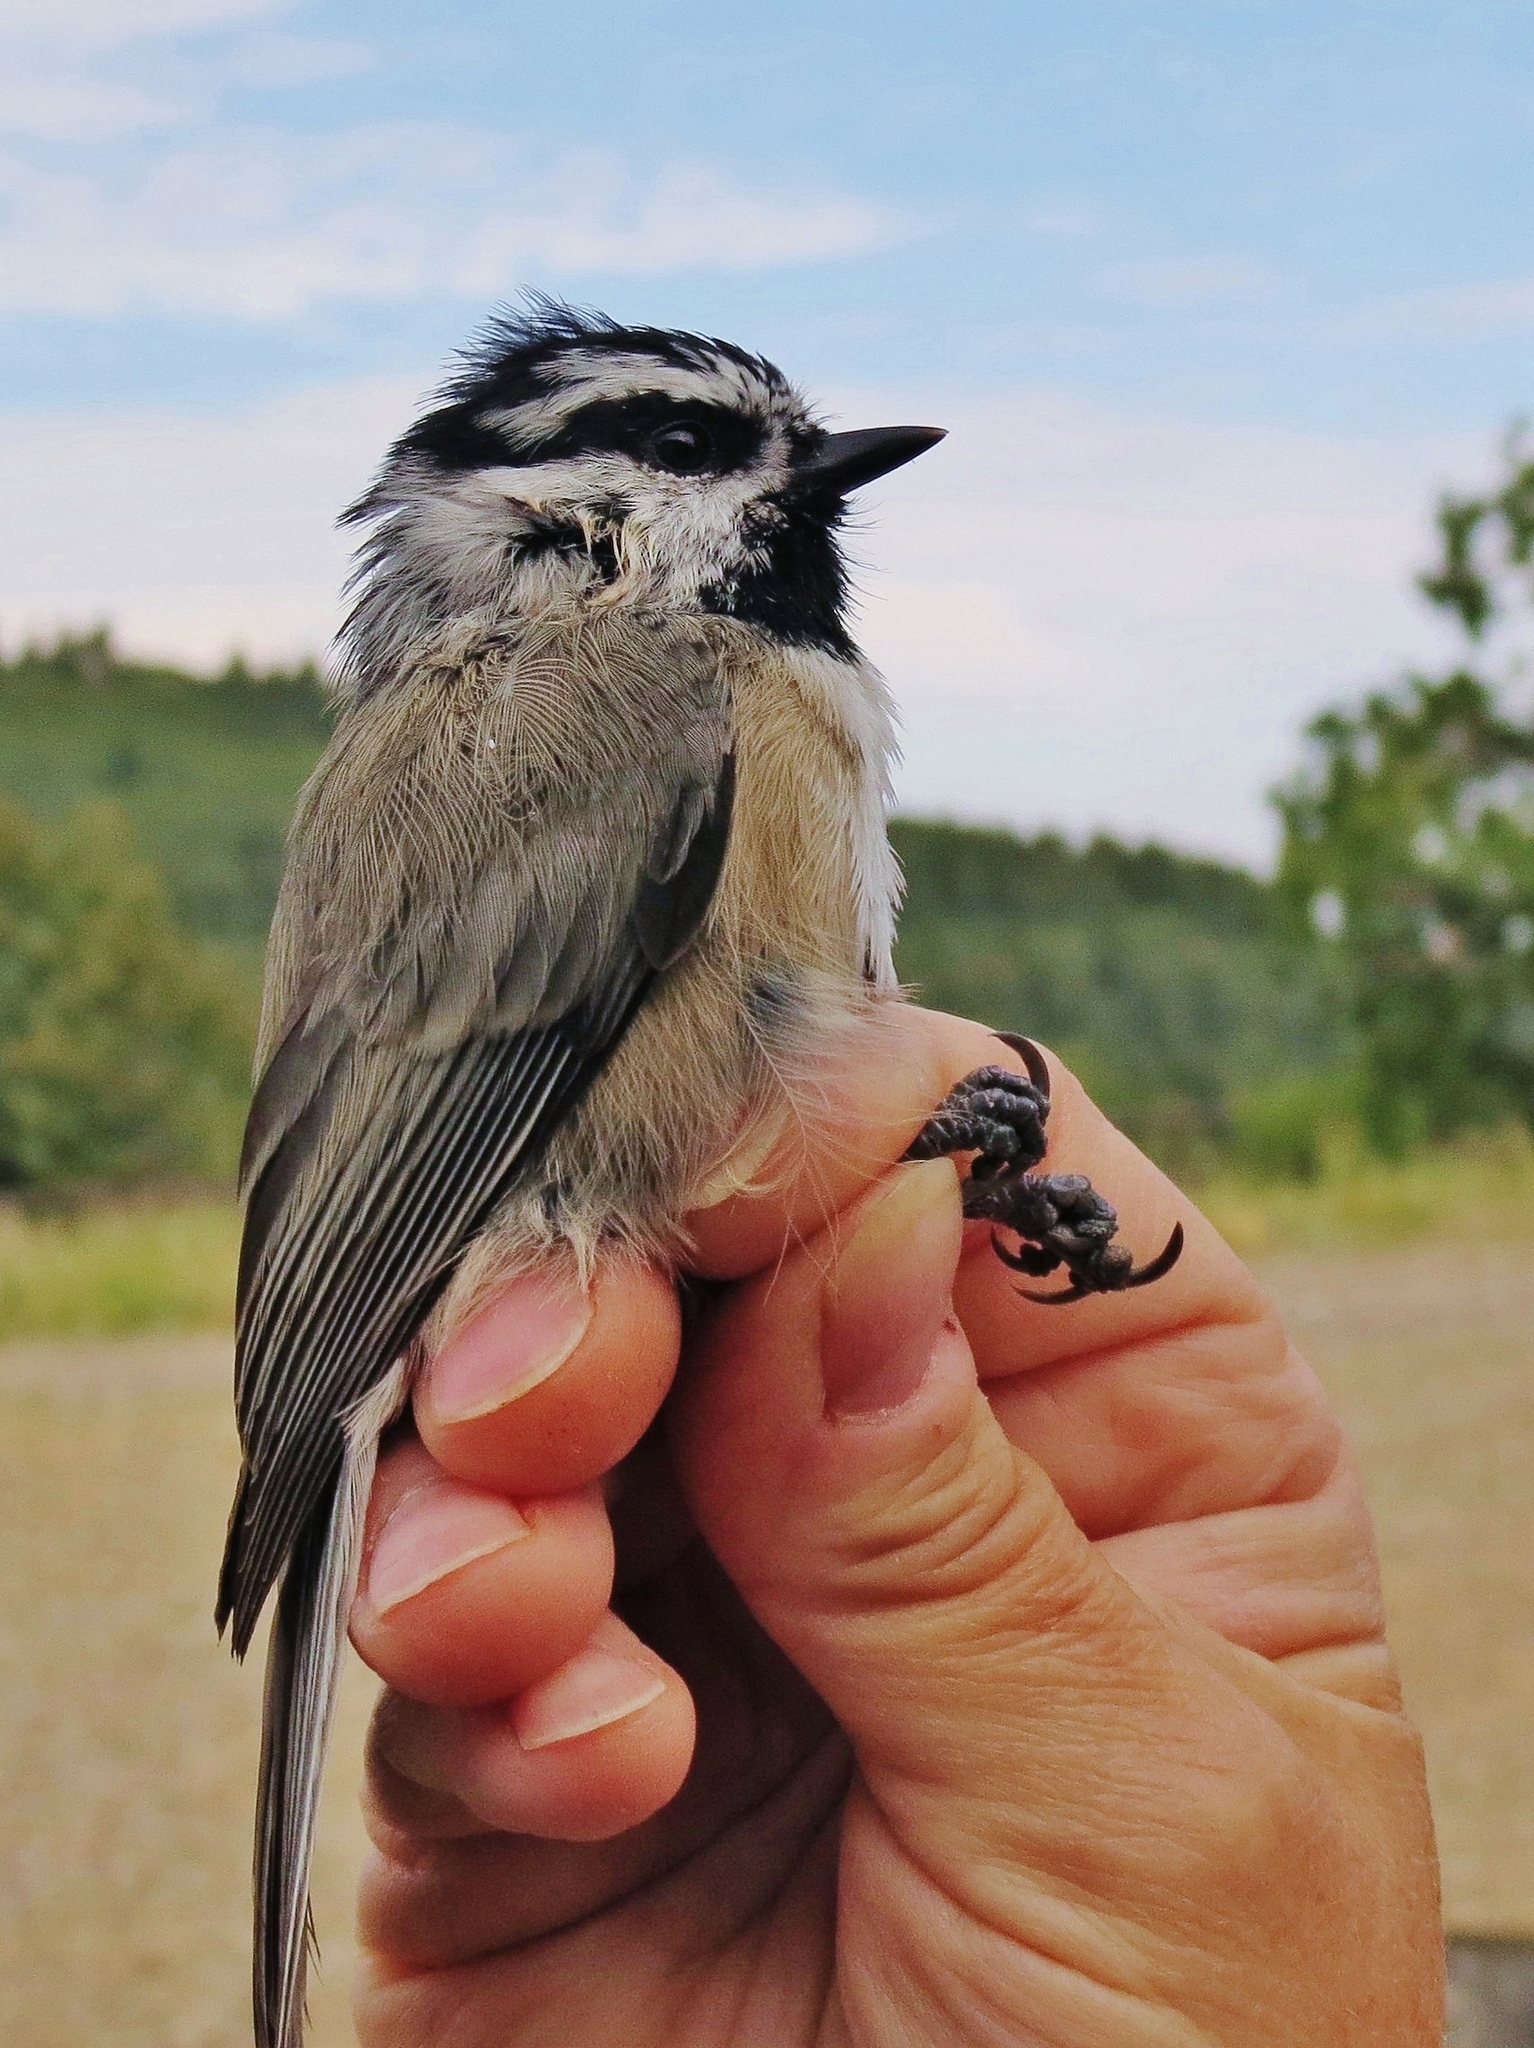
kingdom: Animalia
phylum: Chordata
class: Aves
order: Passeriformes
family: Paridae
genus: Poecile
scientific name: Poecile gambeli
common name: Mountain chickadee
